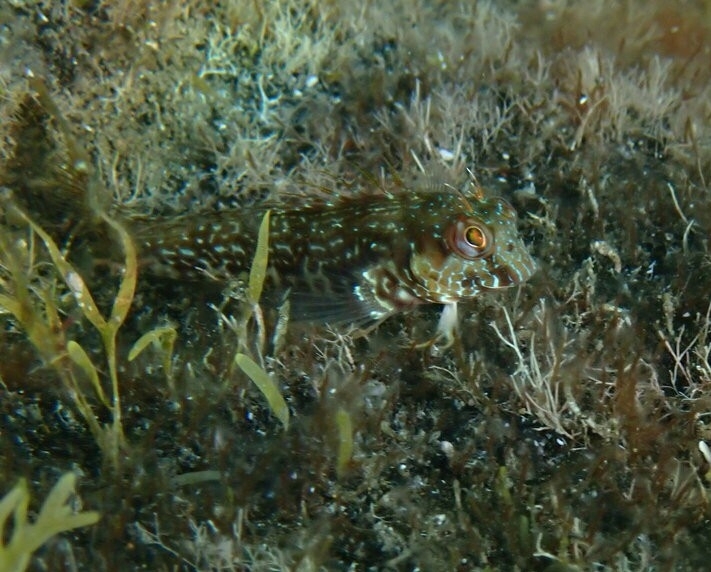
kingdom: Animalia
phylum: Chordata
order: Perciformes
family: Blenniidae
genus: Parablennius
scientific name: Parablennius goreensis
